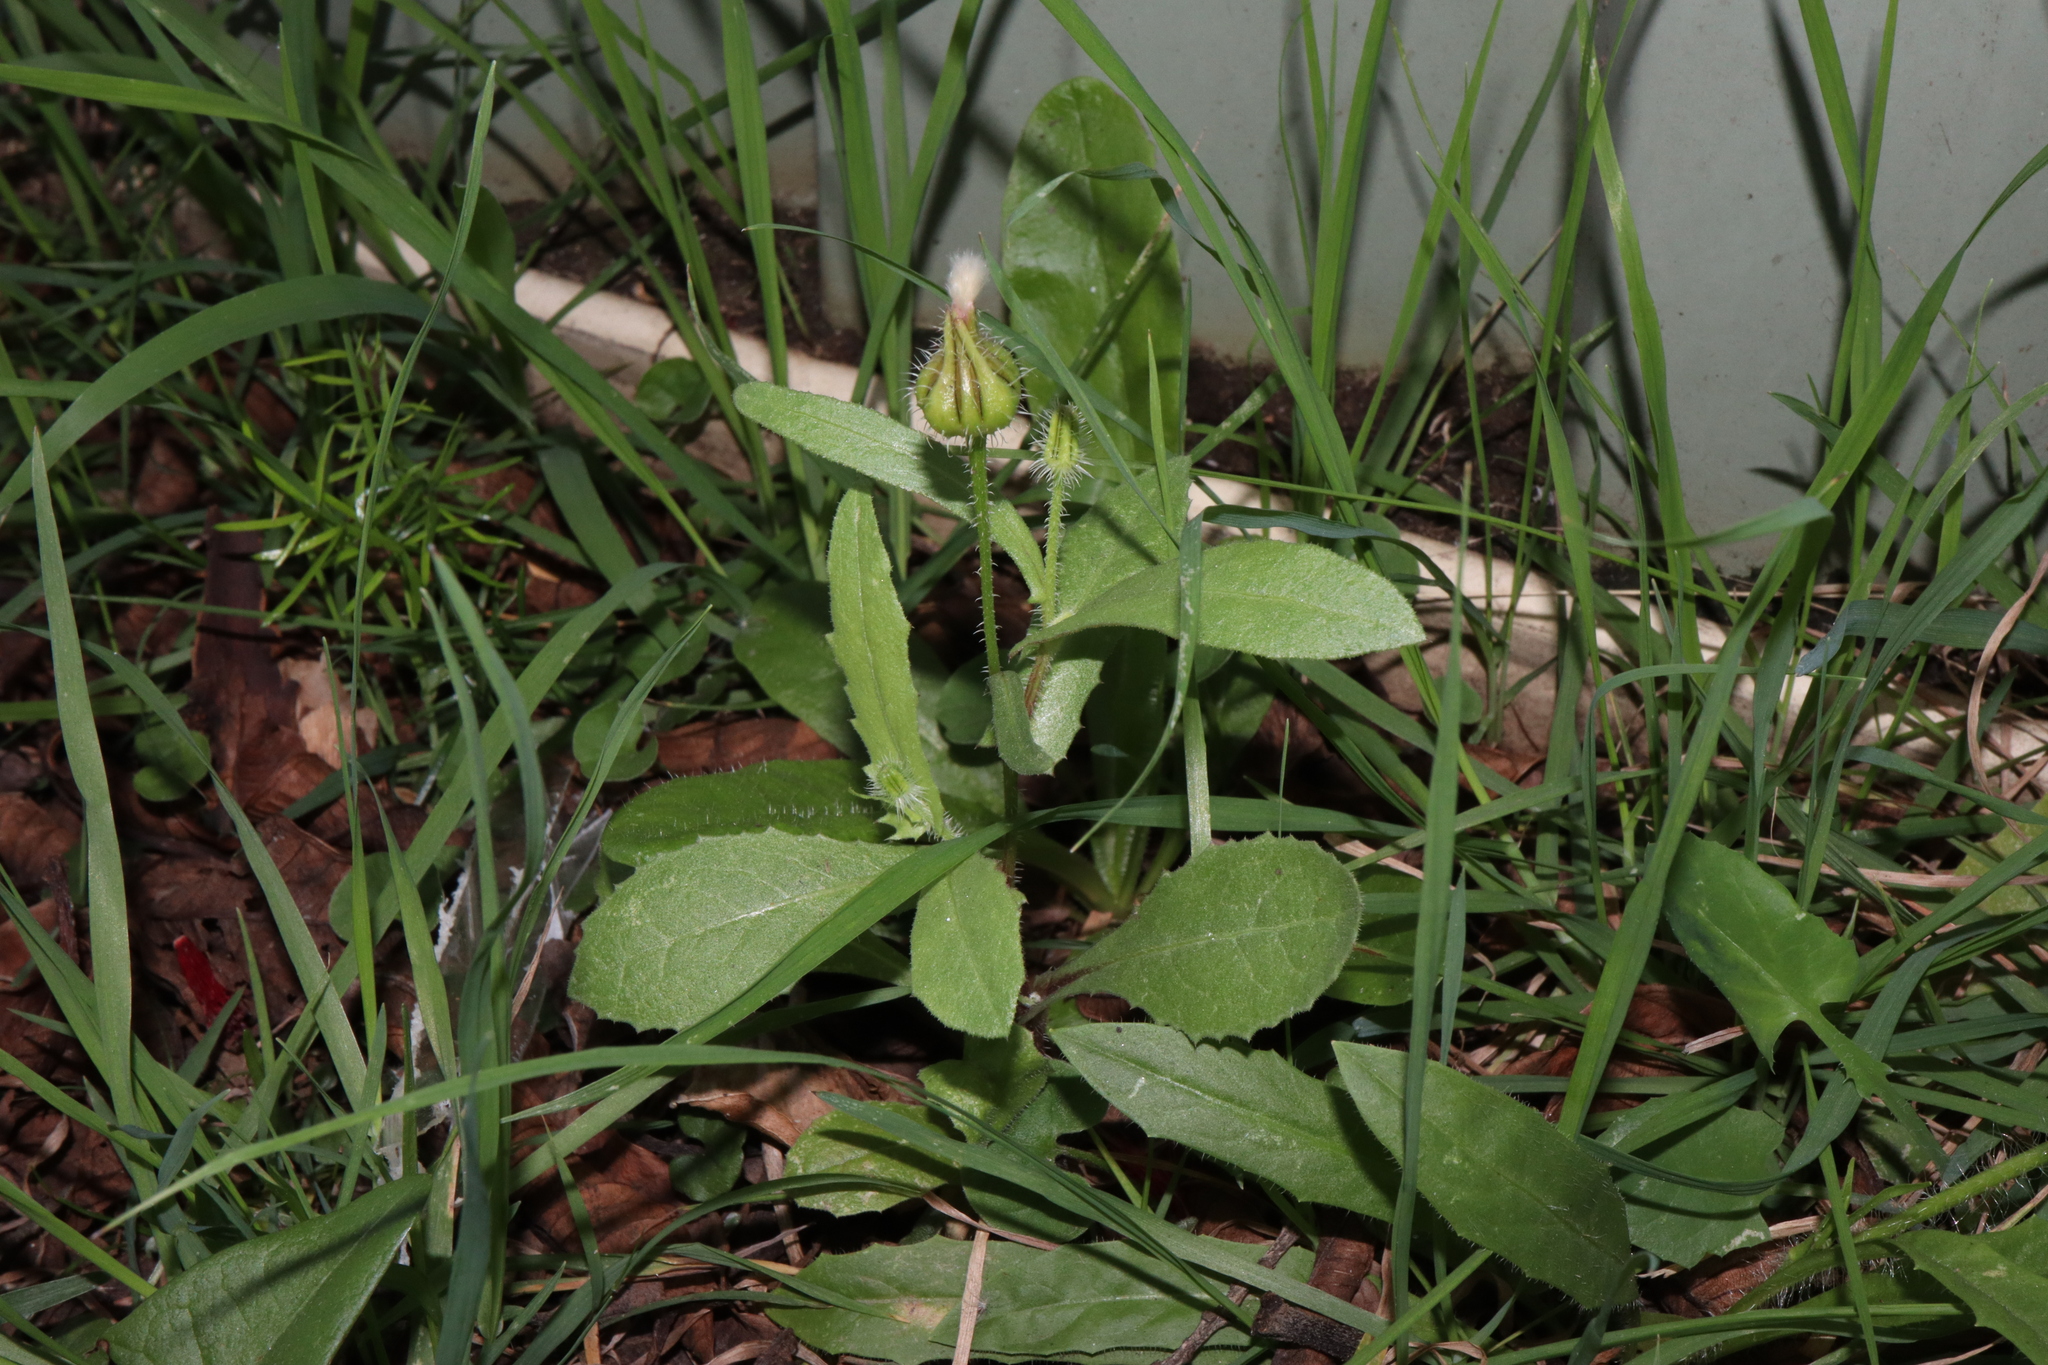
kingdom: Plantae
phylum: Tracheophyta
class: Magnoliopsida
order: Asterales
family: Asteraceae
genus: Urospermum
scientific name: Urospermum picroides
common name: False hawkbit
